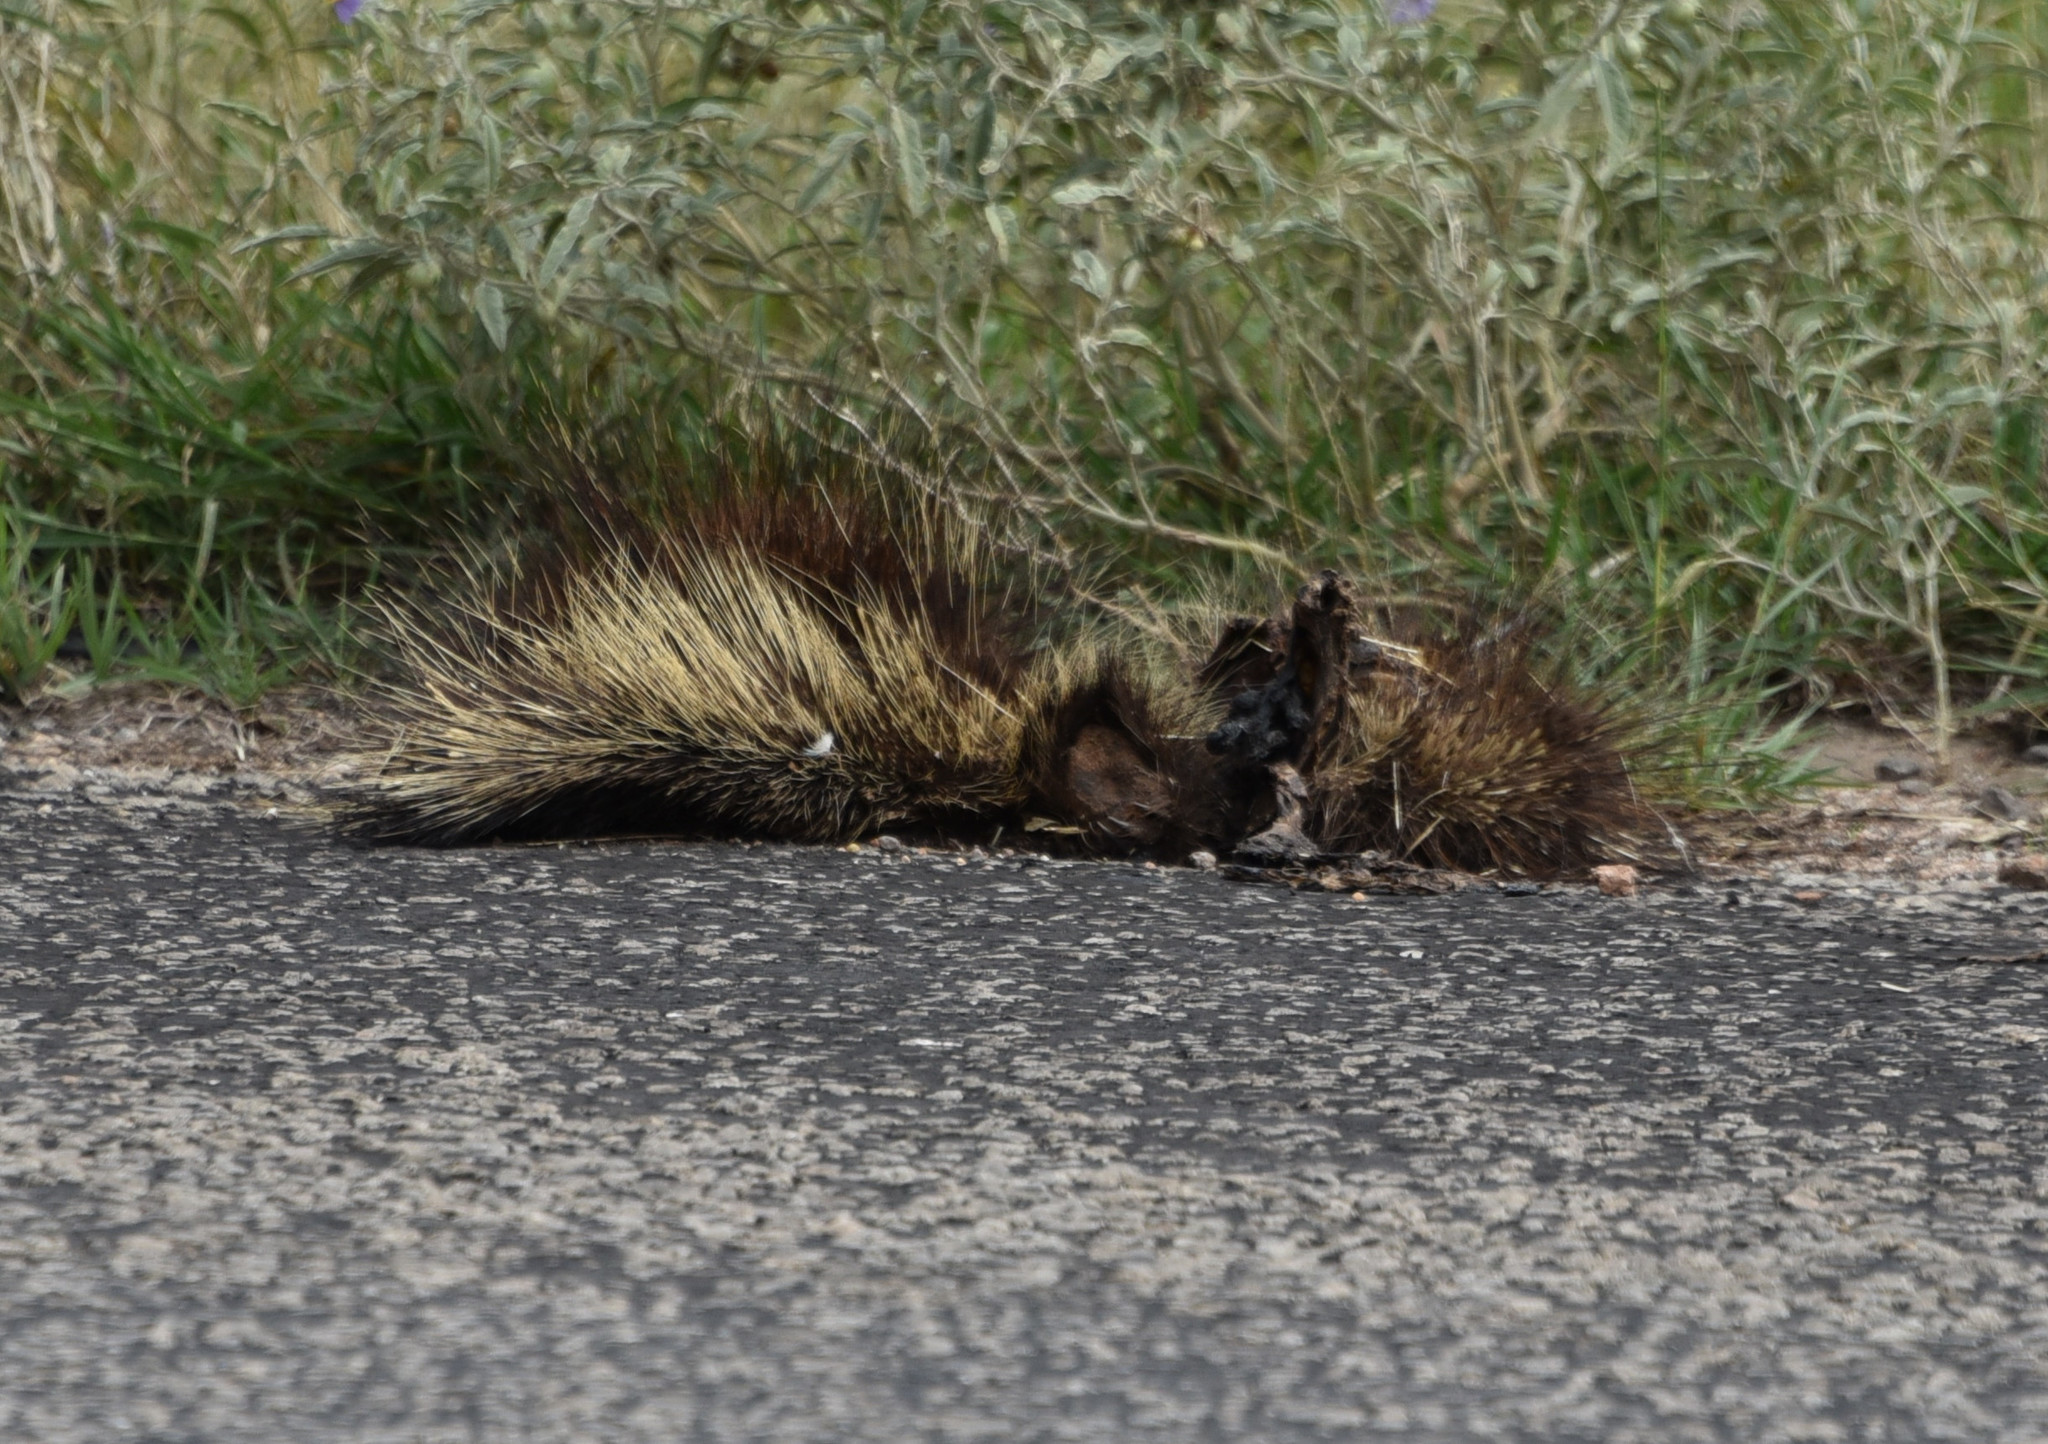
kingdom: Animalia
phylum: Chordata
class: Mammalia
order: Rodentia
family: Erethizontidae
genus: Erethizon
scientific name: Erethizon dorsatus
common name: North american porcupine
